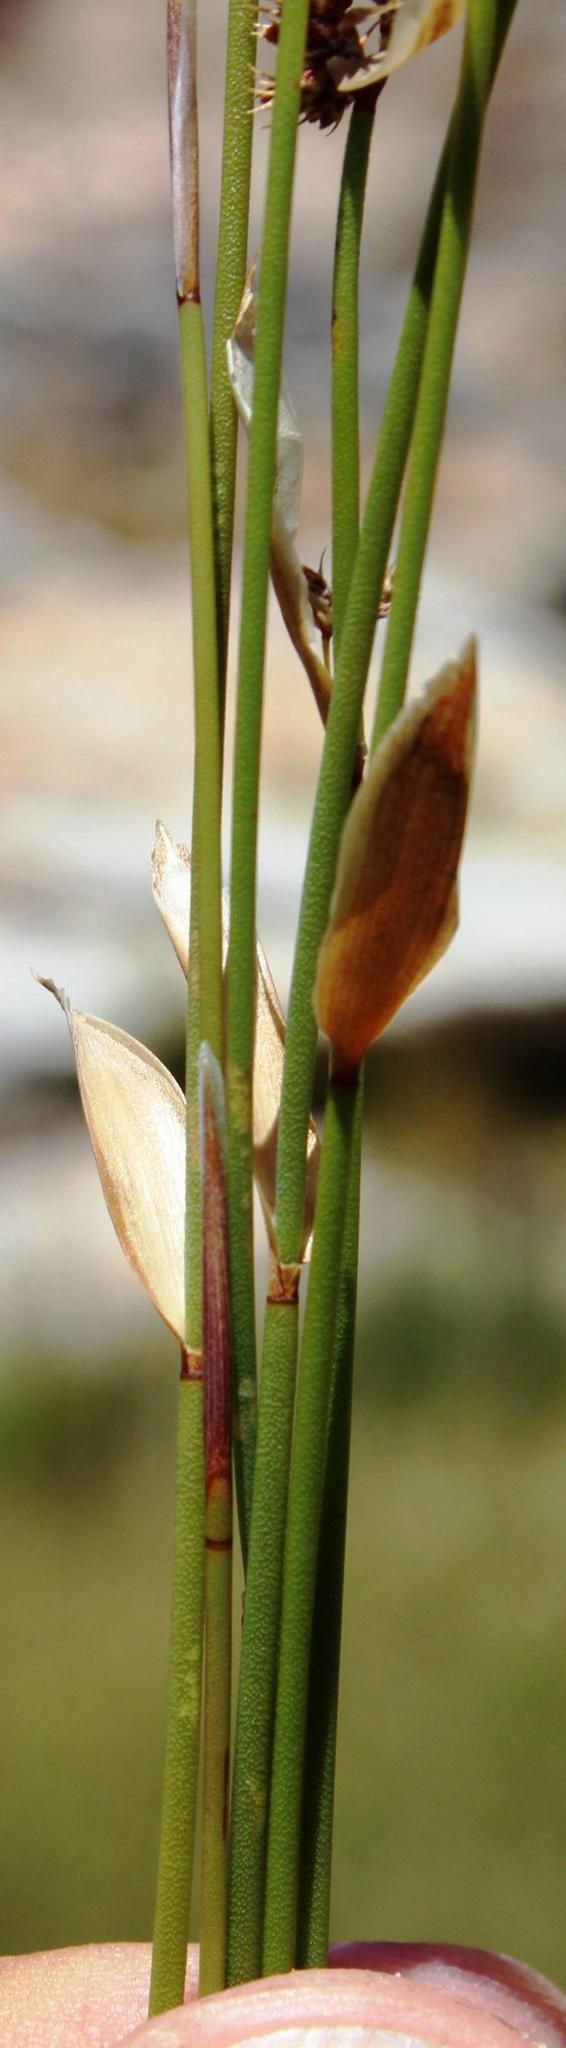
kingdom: Plantae
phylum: Tracheophyta
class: Liliopsida
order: Poales
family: Restionaceae
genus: Elegia
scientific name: Elegia asperiflora
